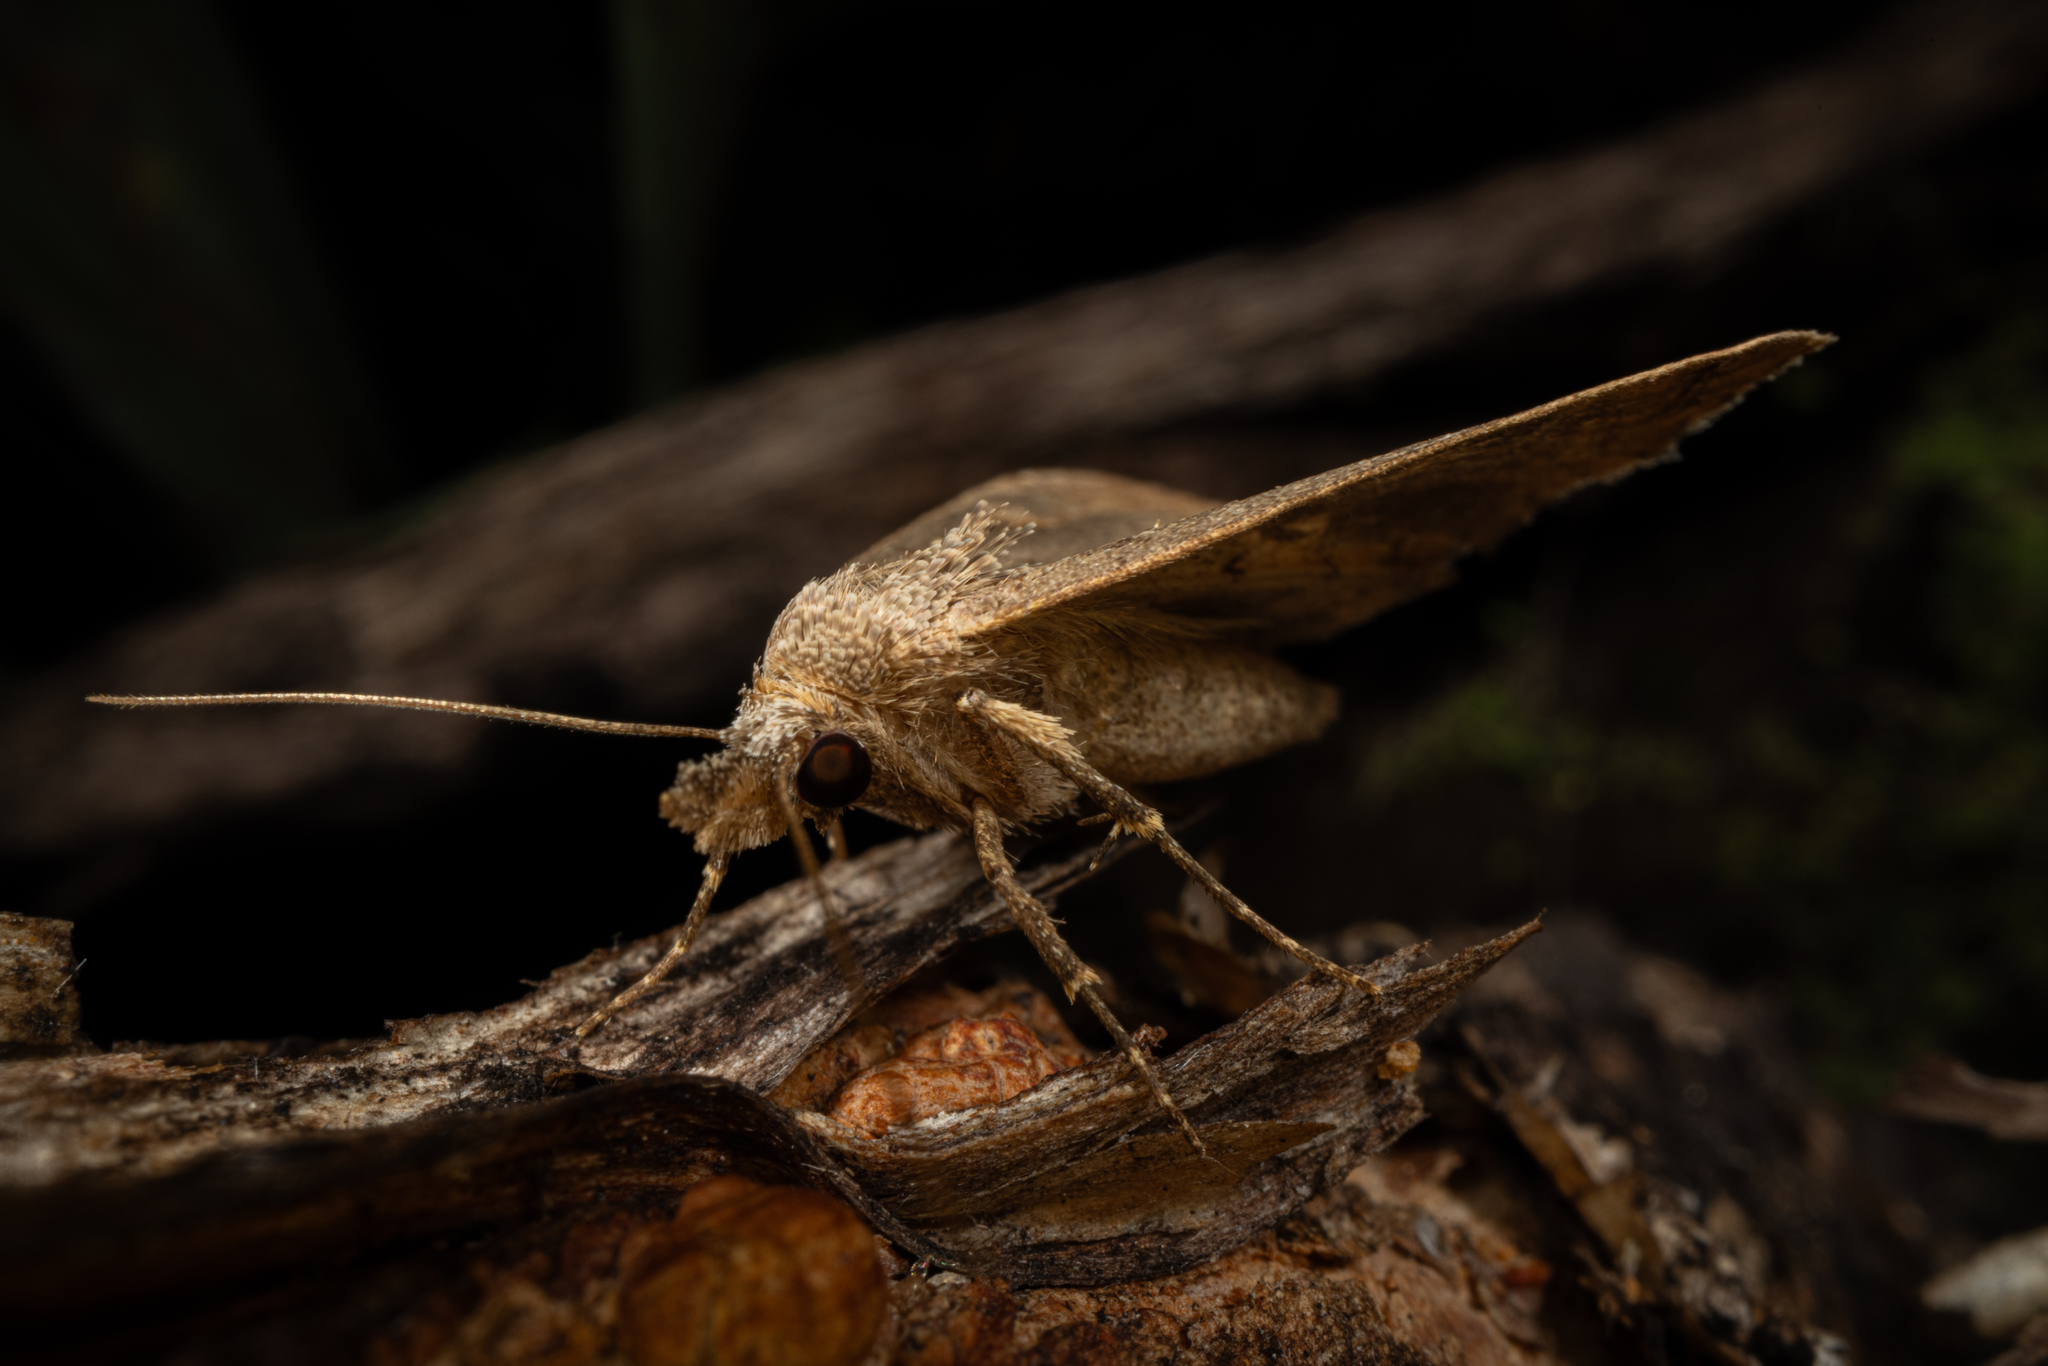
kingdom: Animalia
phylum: Arthropoda
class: Insecta
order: Lepidoptera
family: Erebidae
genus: Rhapsa
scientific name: Rhapsa scotosialis
